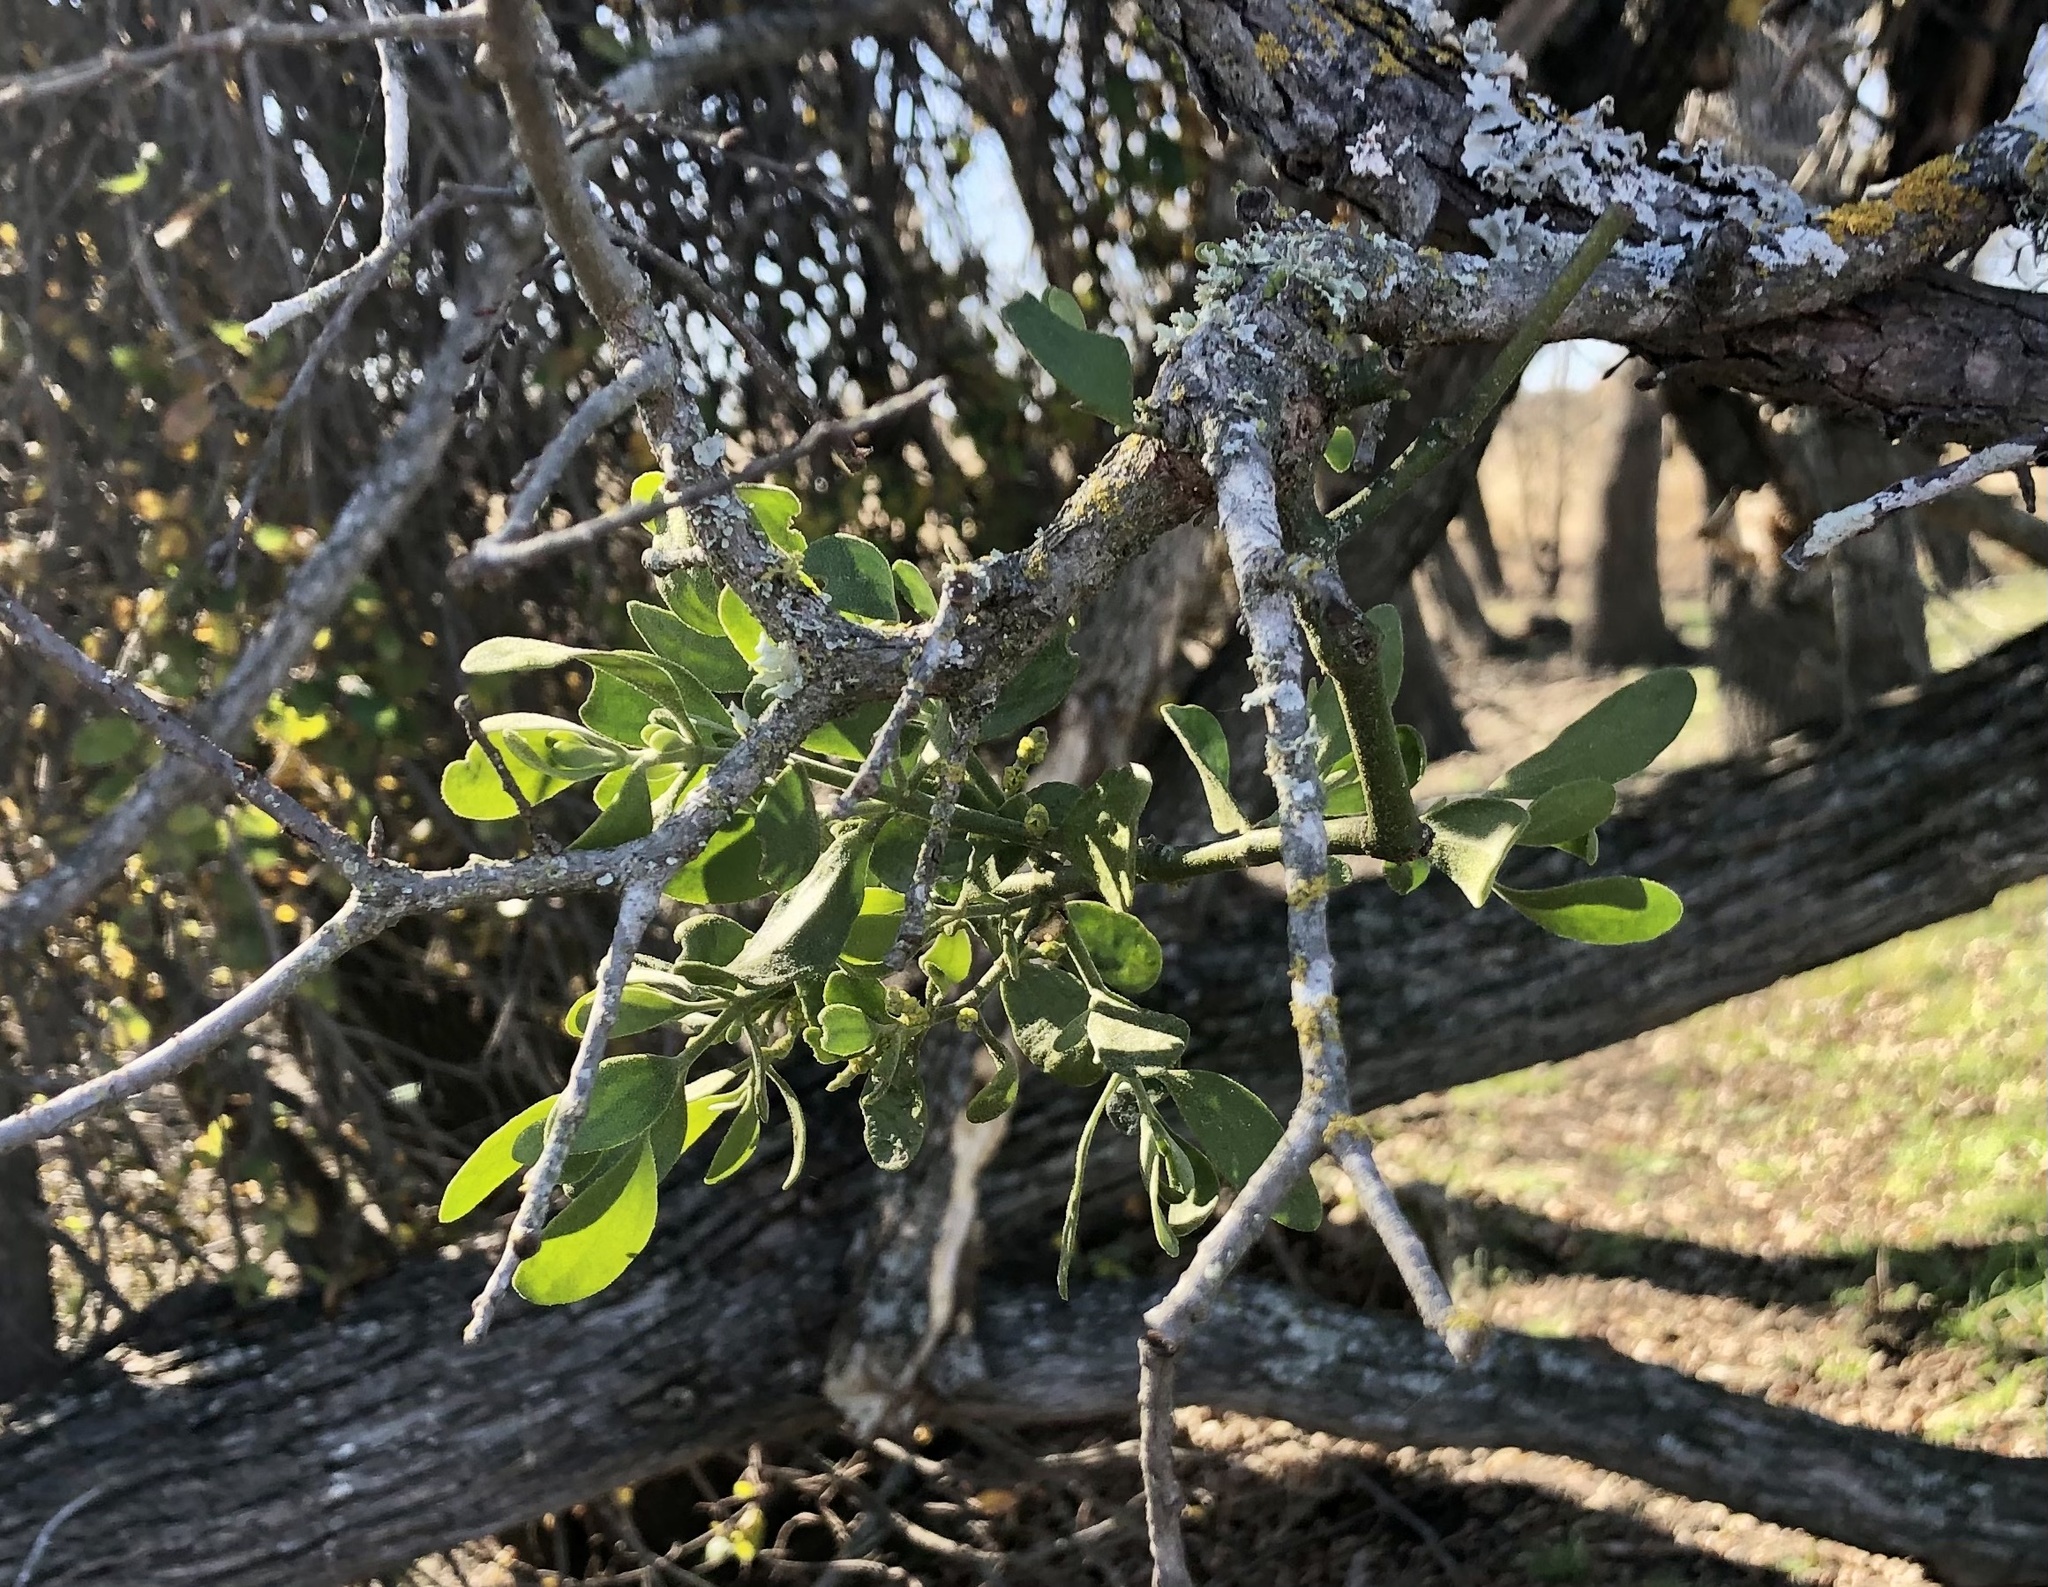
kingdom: Plantae
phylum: Tracheophyta
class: Magnoliopsida
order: Santalales
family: Viscaceae
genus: Phoradendron
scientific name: Phoradendron leucarpum
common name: Pacific mistletoe
